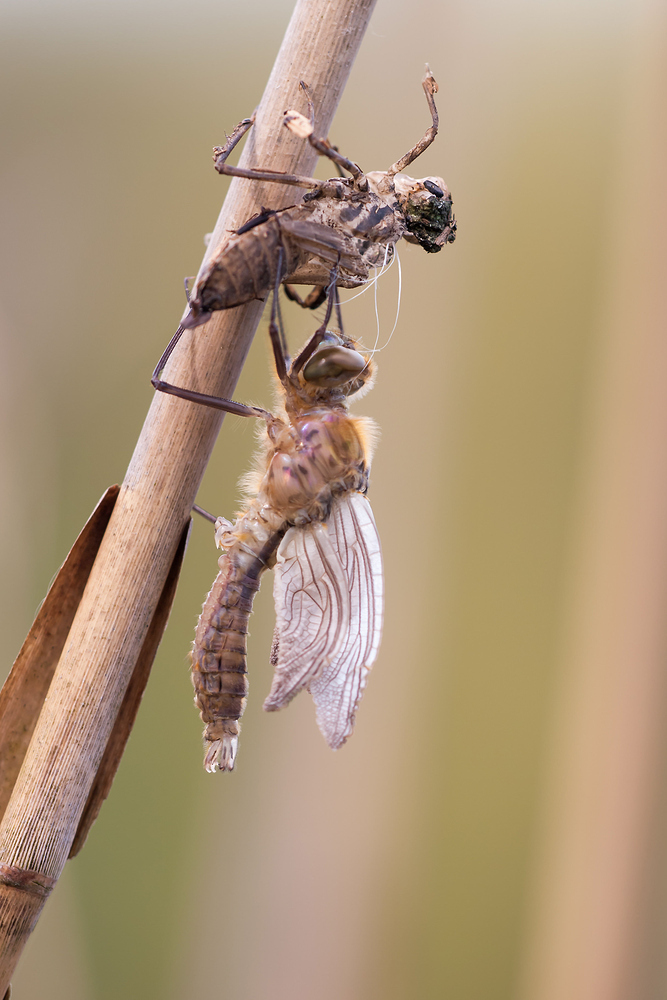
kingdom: Animalia
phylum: Arthropoda
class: Insecta
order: Odonata
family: Corduliidae
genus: Cordulia
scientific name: Cordulia aenea
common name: Downy emerald
